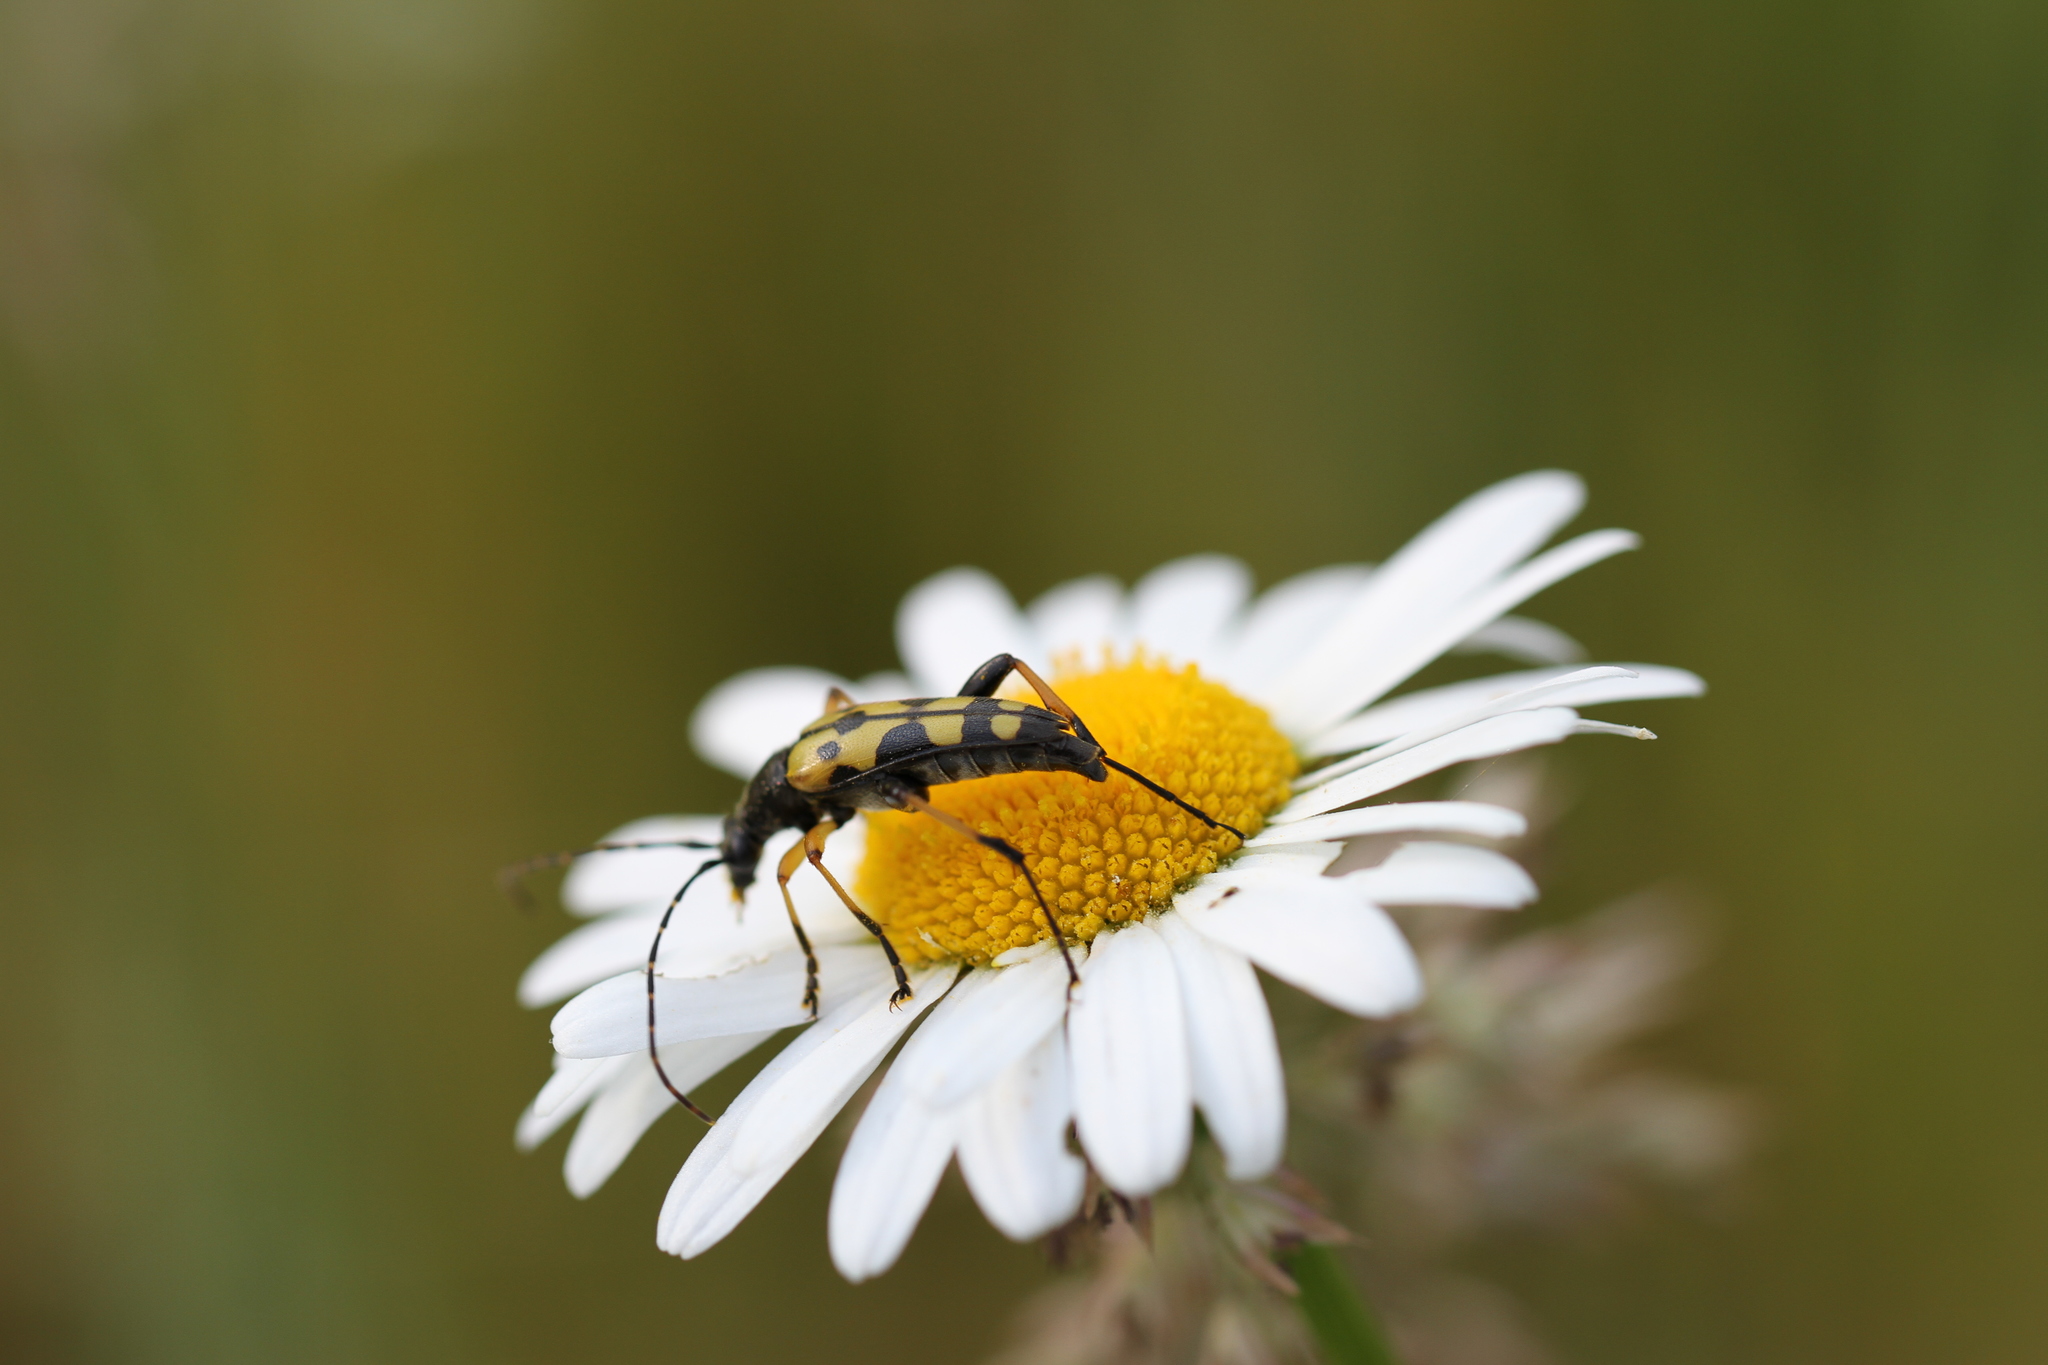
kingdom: Animalia
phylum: Arthropoda
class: Insecta
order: Coleoptera
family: Cerambycidae
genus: Rutpela
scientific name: Rutpela maculata
